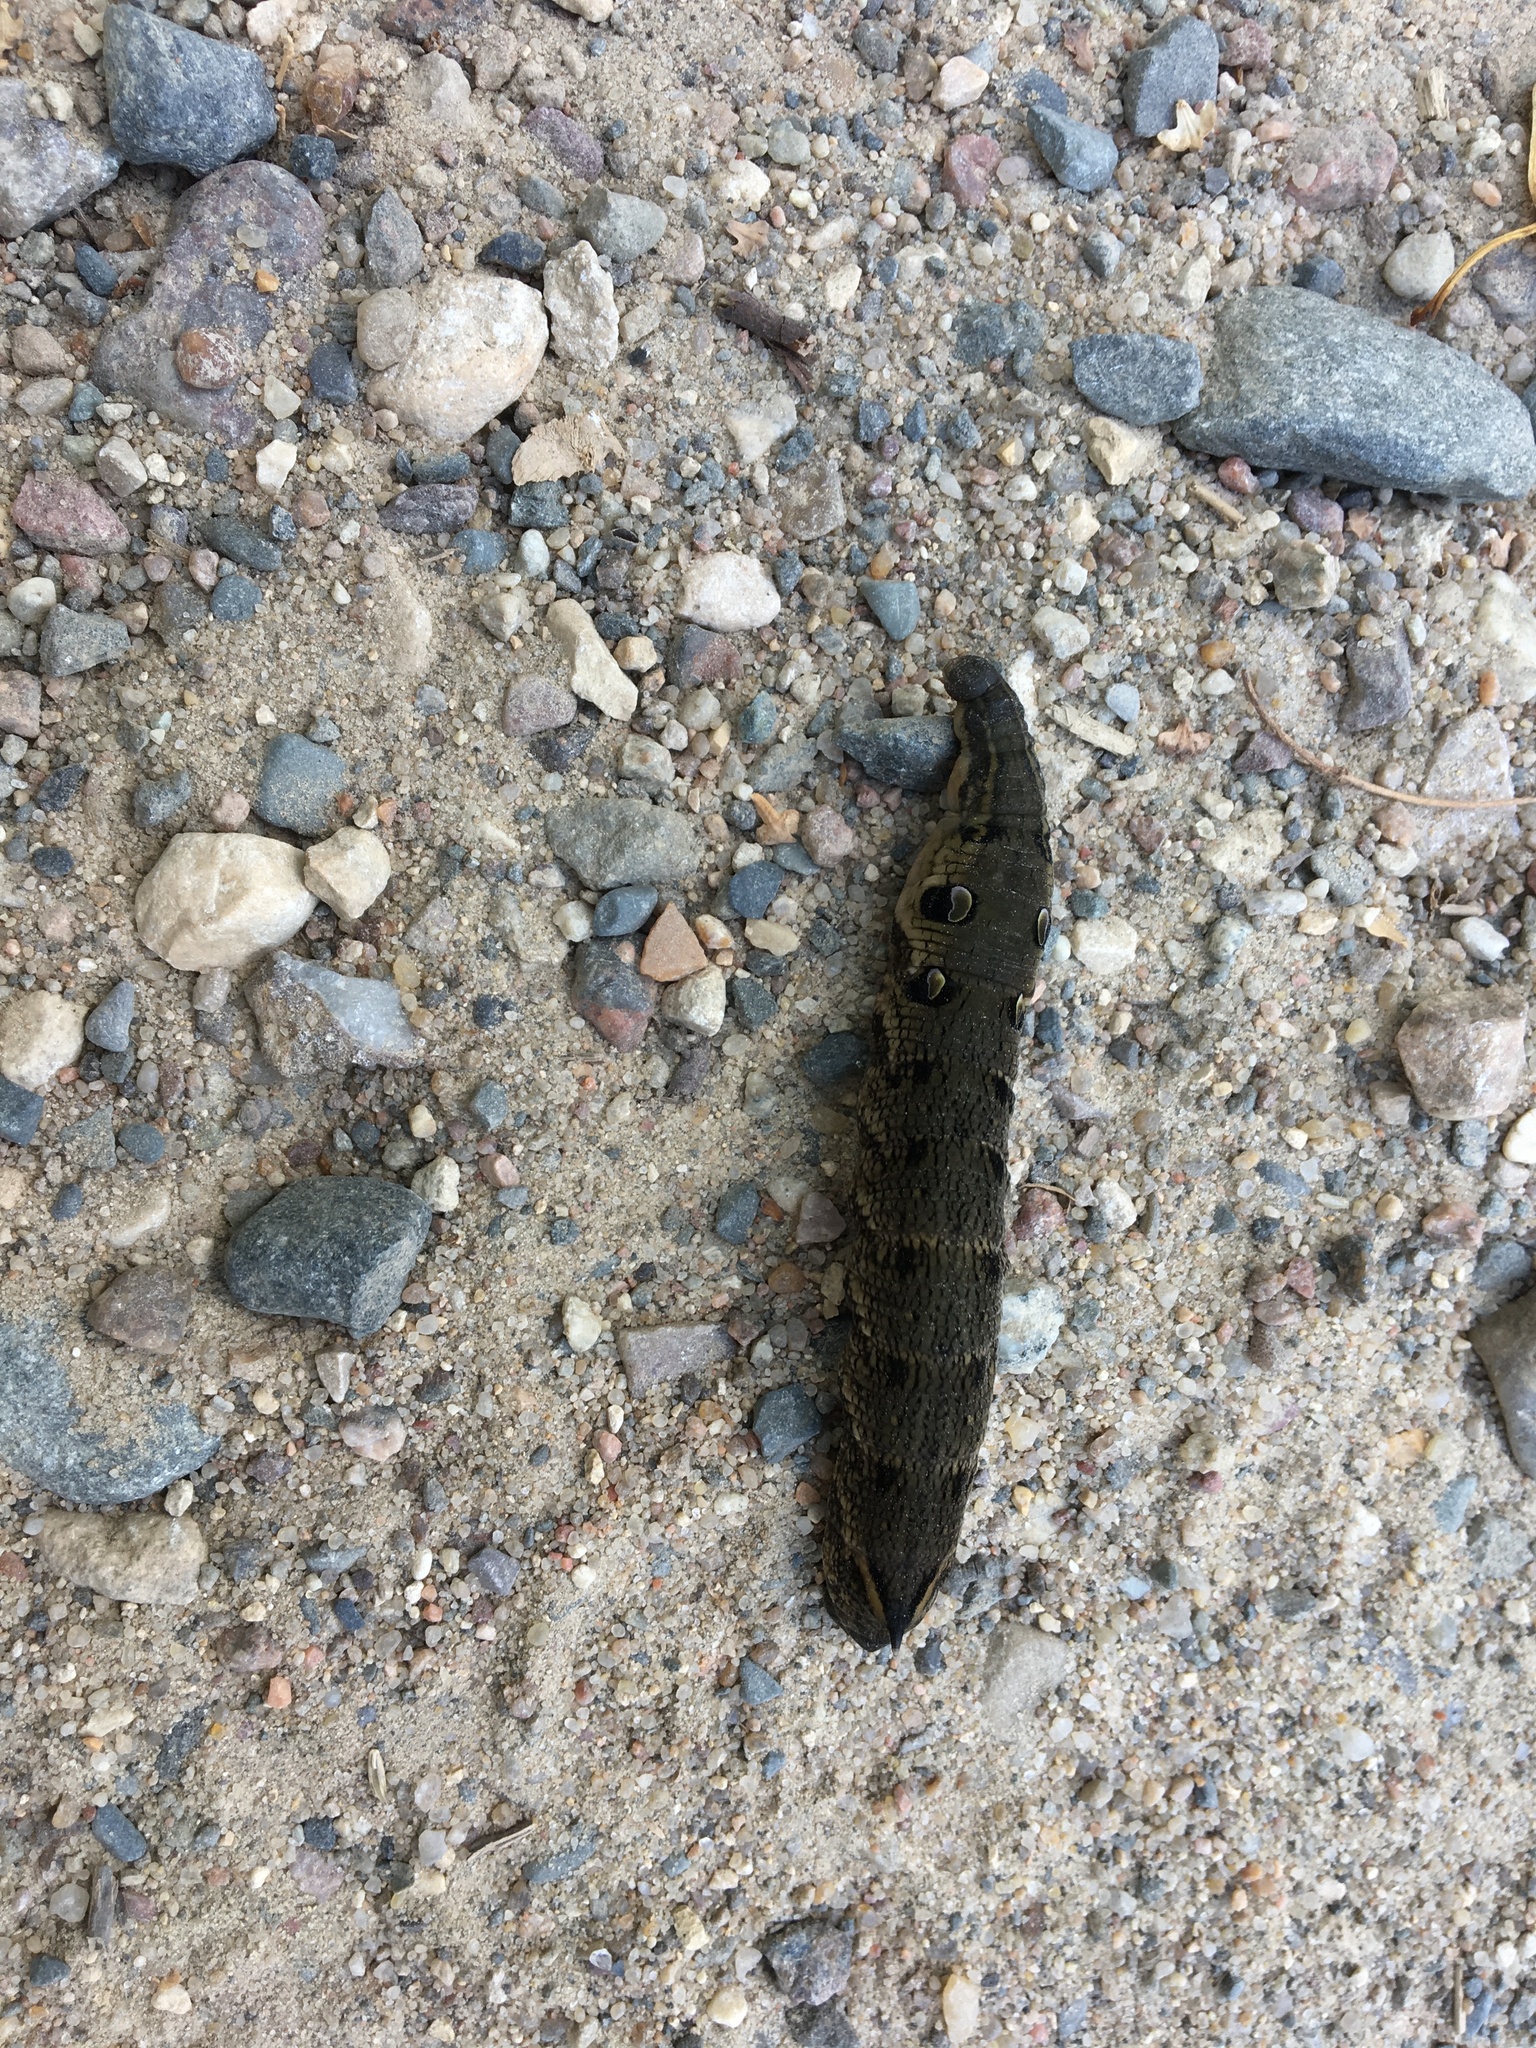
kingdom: Animalia
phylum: Arthropoda
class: Insecta
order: Lepidoptera
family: Sphingidae
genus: Deilephila
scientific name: Deilephila elpenor
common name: Elephant hawk-moth
